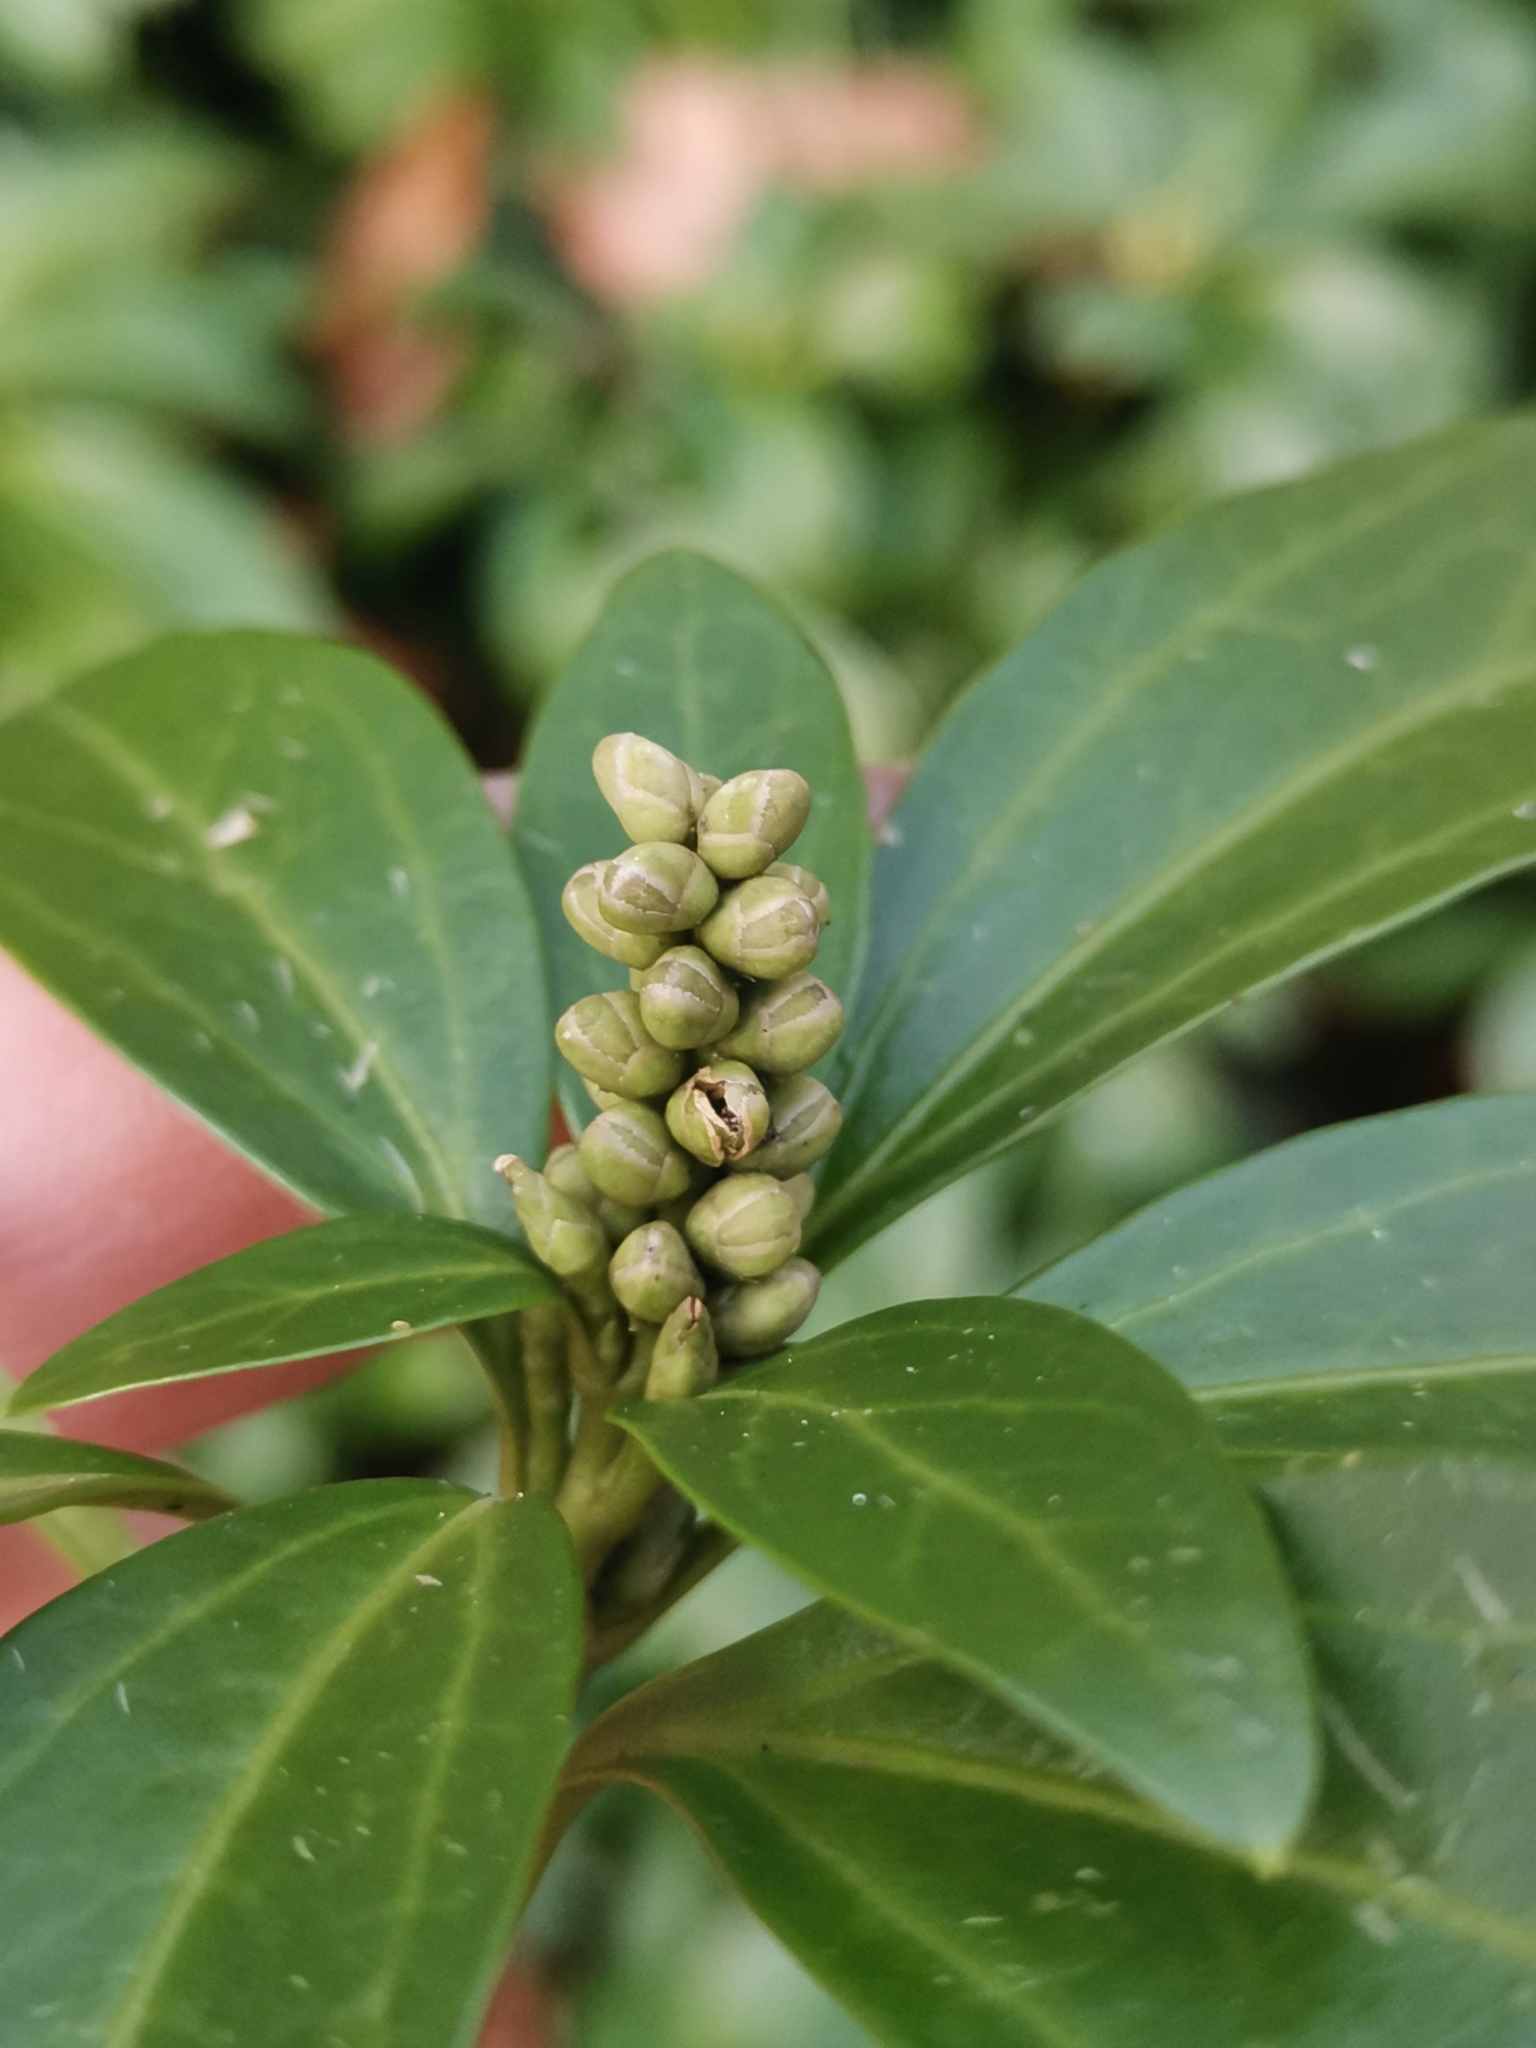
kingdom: Plantae
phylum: Tracheophyta
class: Magnoliopsida
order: Buxales
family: Buxaceae
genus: Pachysandra
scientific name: Pachysandra terminalis
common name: Japanese pachysandra
